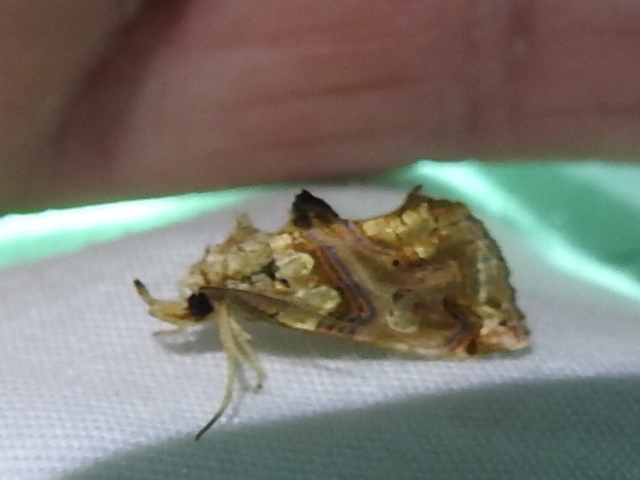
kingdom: Animalia
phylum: Arthropoda
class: Insecta
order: Lepidoptera
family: Erebidae
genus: Plusiodonta
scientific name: Plusiodonta compressipalpis
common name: Moonseed moth
